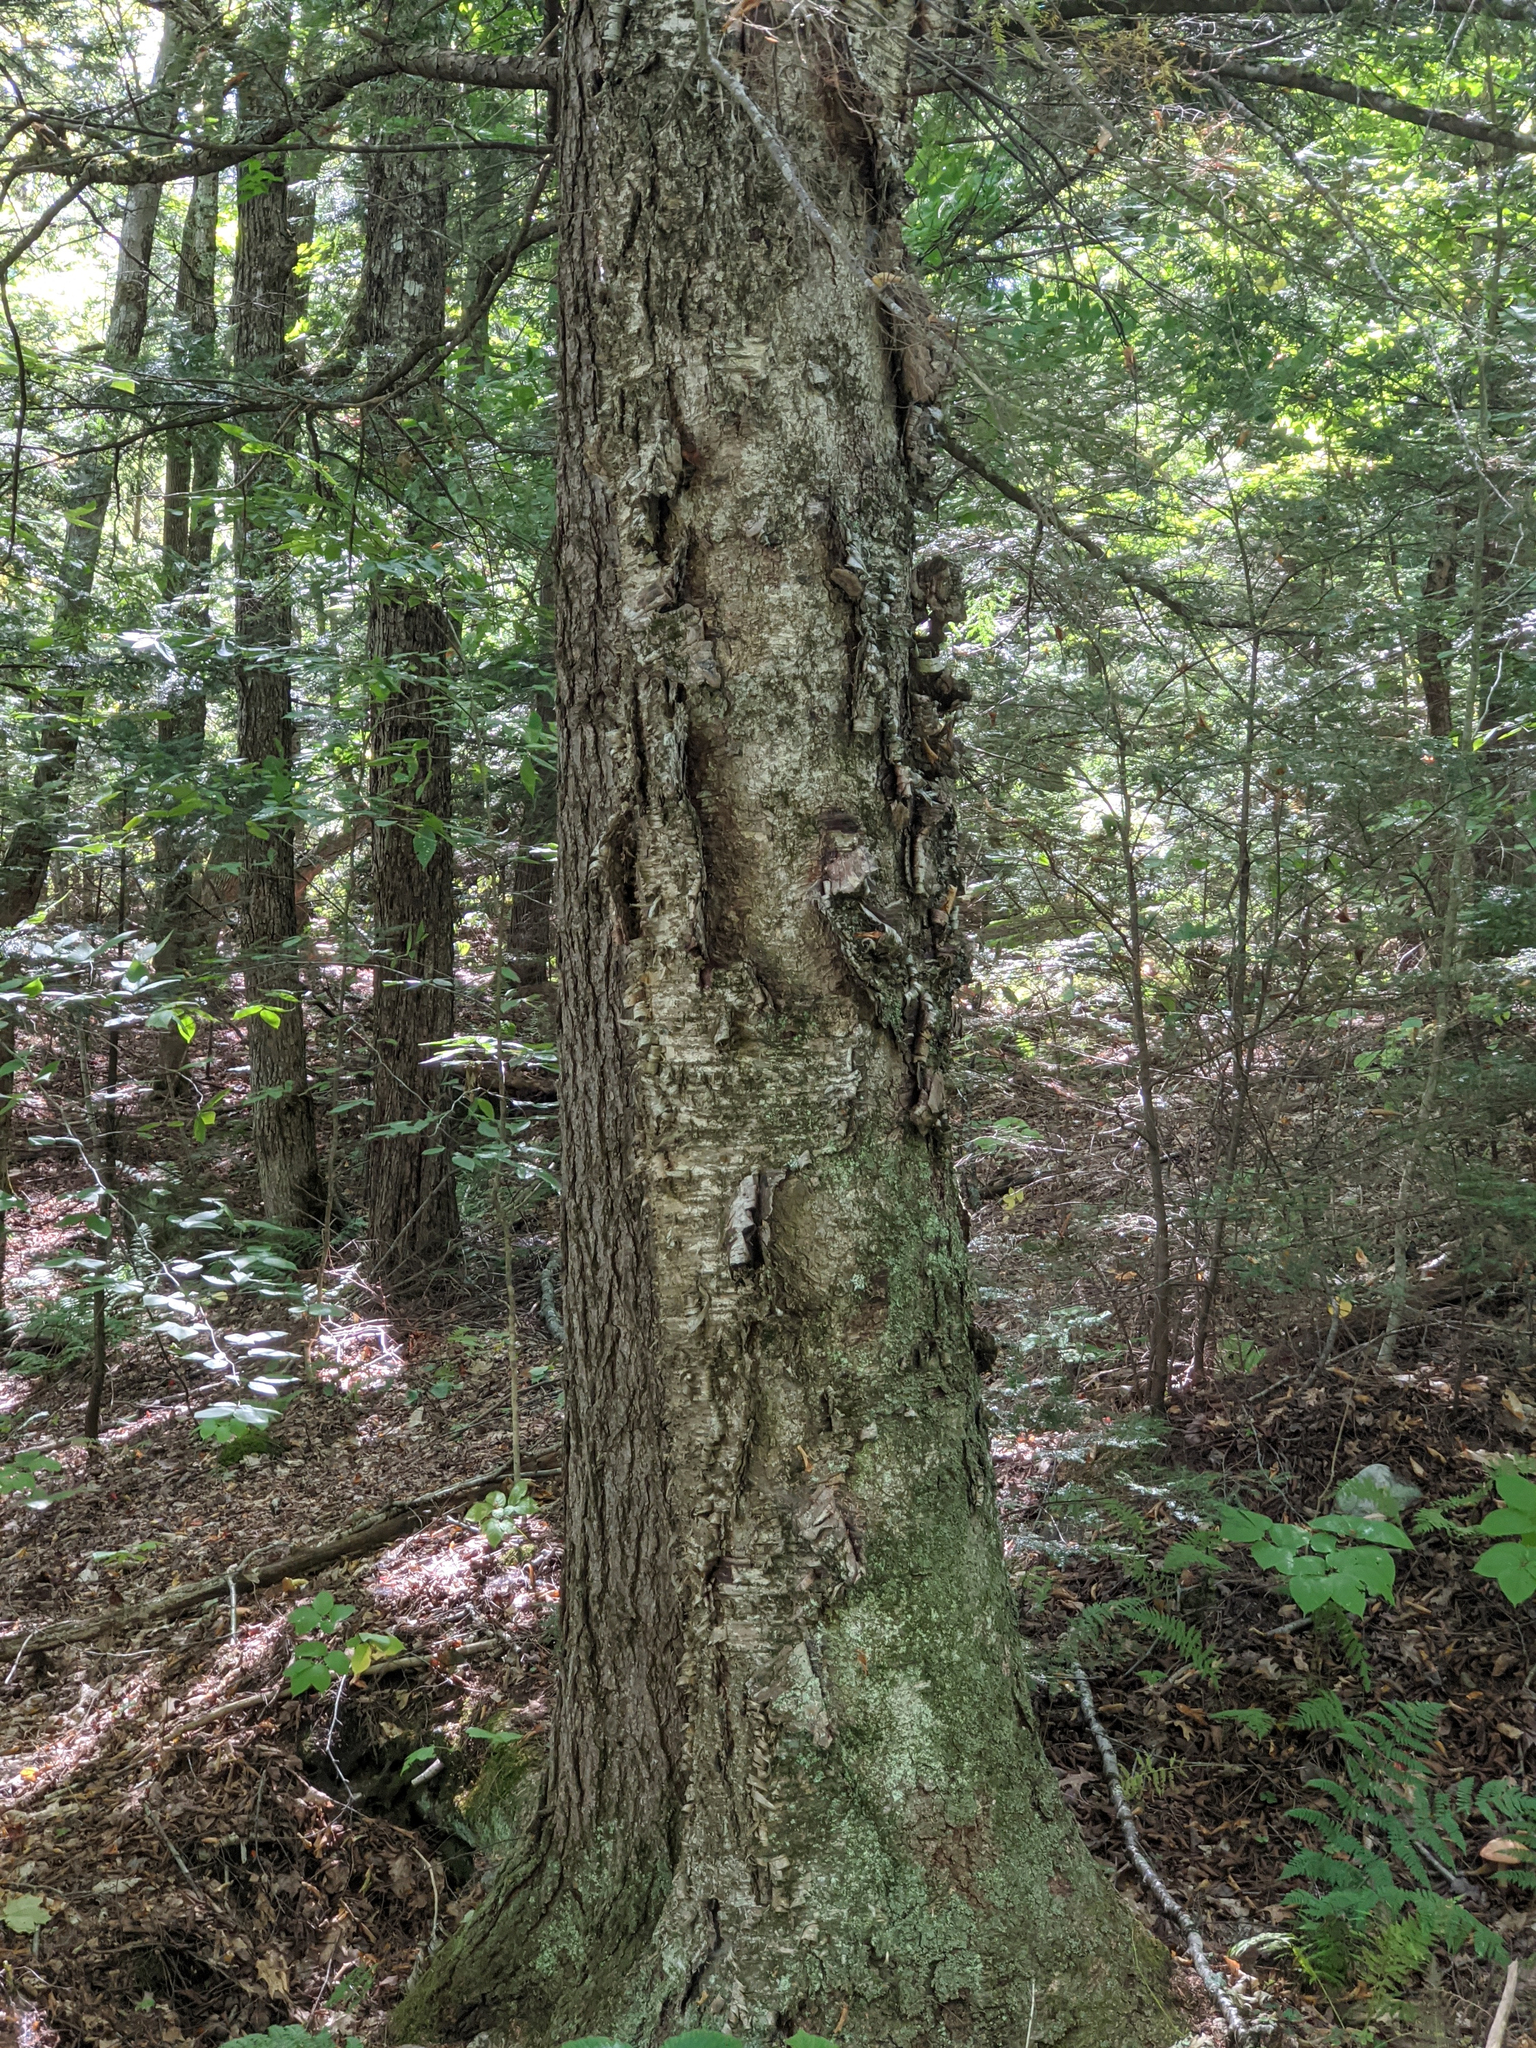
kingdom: Plantae
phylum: Tracheophyta
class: Magnoliopsida
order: Fagales
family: Betulaceae
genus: Betula
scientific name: Betula alleghaniensis
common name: Yellow birch
